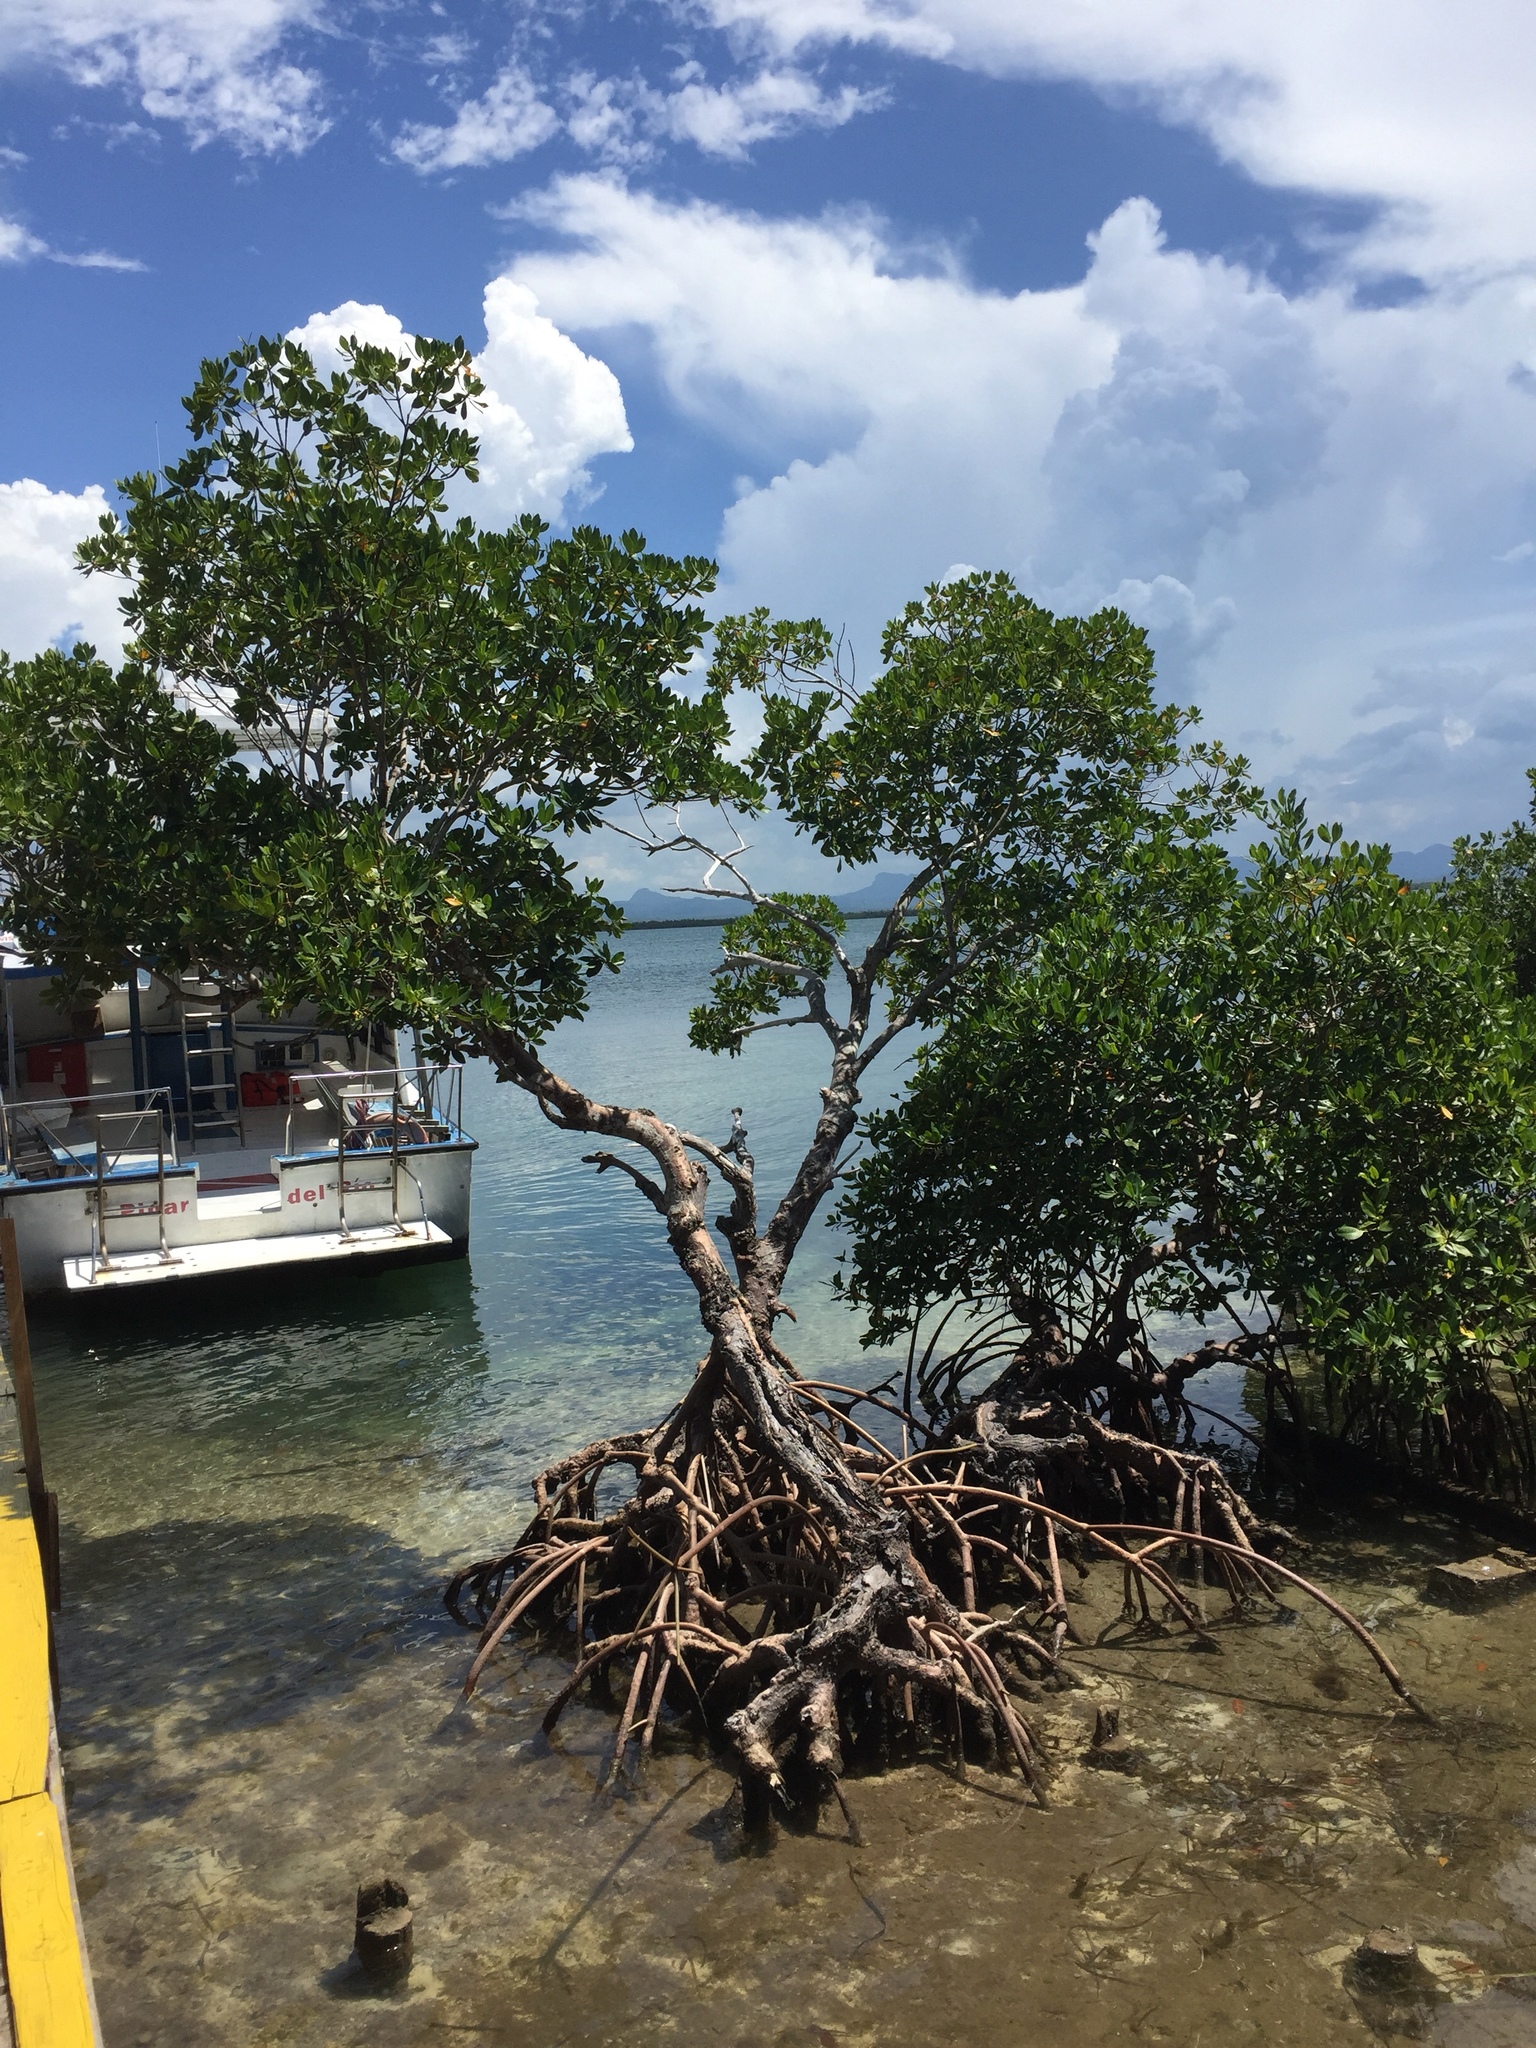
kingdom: Plantae
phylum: Tracheophyta
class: Magnoliopsida
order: Malpighiales
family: Rhizophoraceae
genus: Rhizophora
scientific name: Rhizophora mangle
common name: Red mangrove
